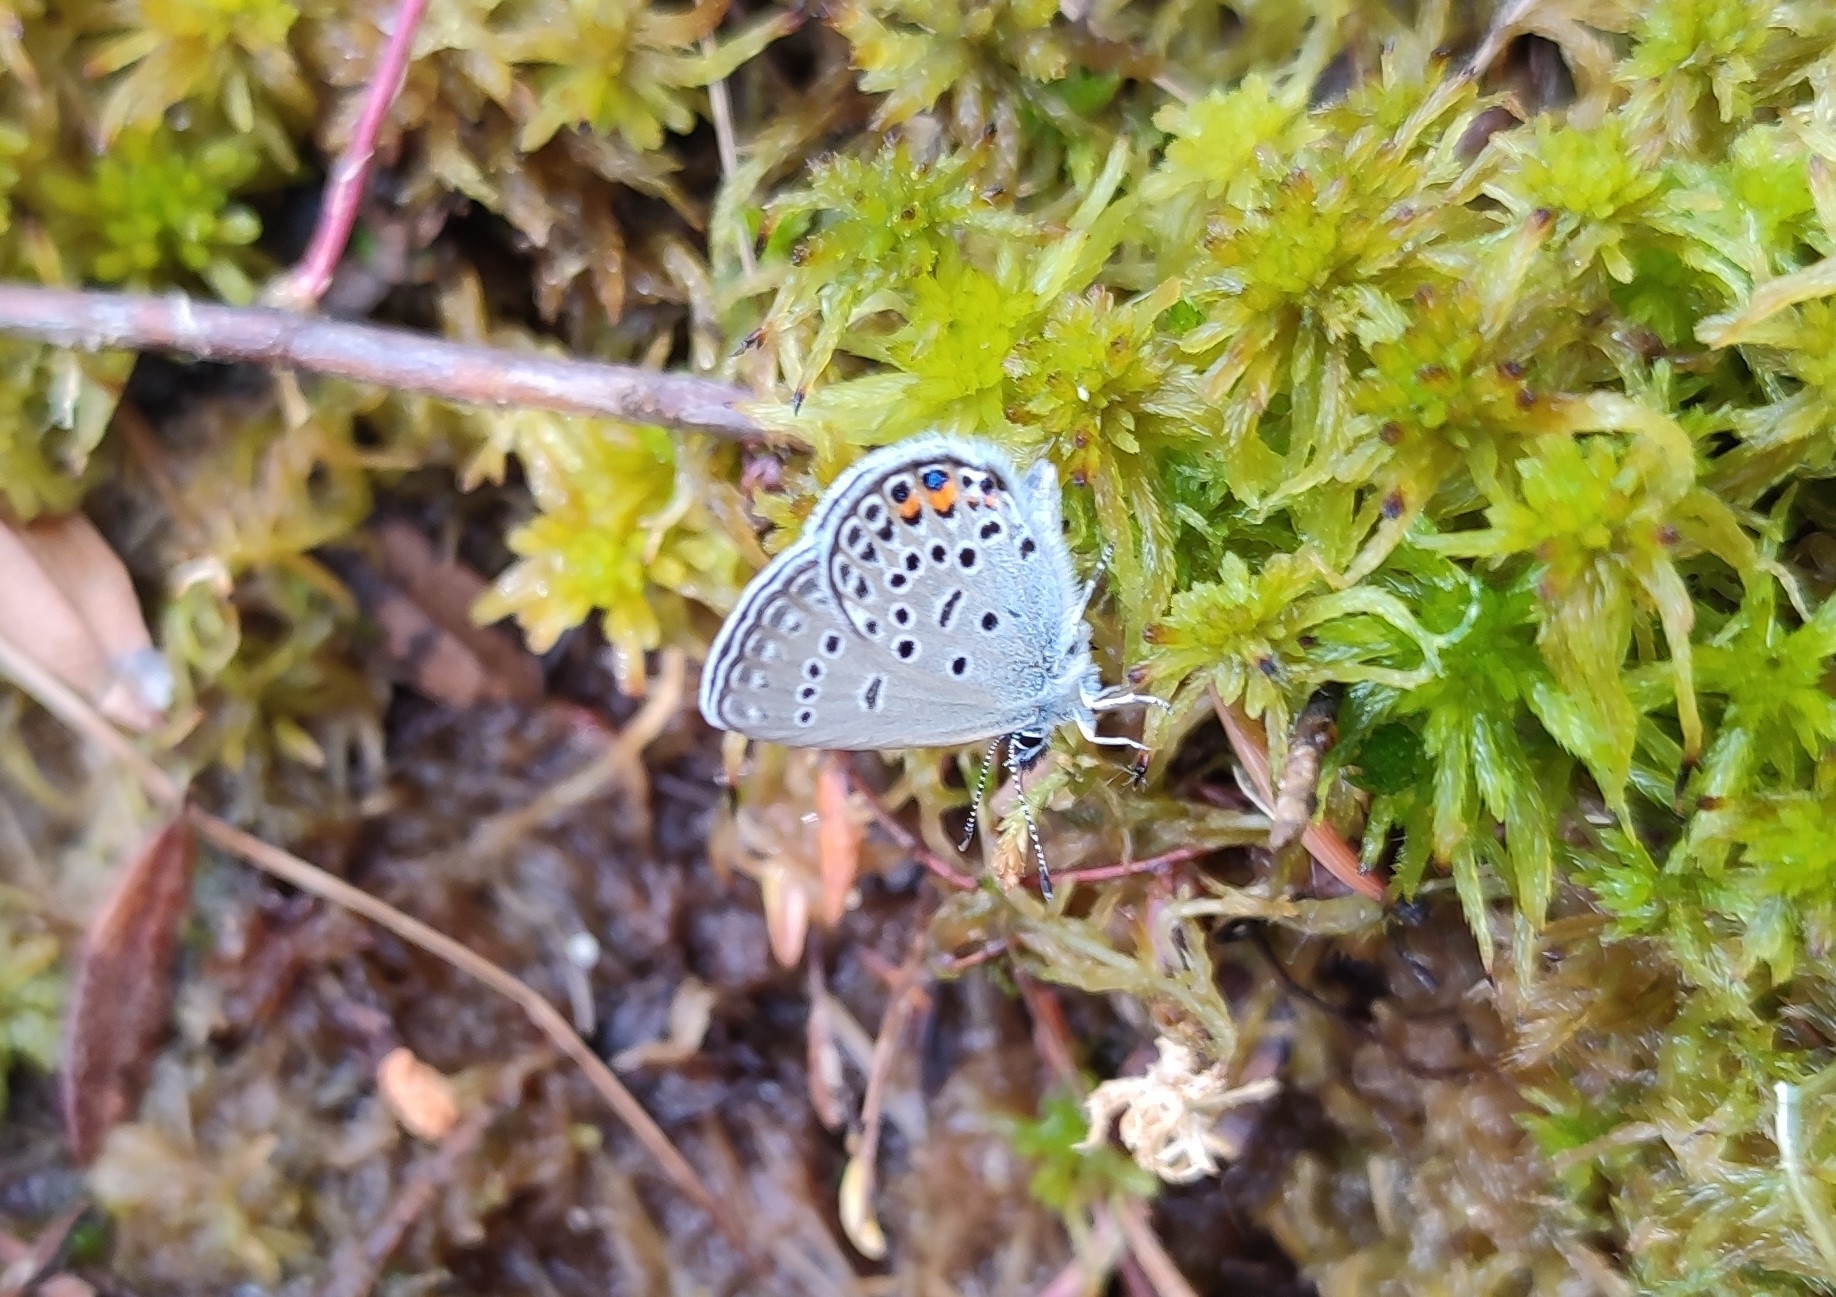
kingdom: Animalia
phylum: Arthropoda
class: Insecta
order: Lepidoptera
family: Lycaenidae
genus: Vacciniina
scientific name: Vacciniina optilete
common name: Cranberry blue
